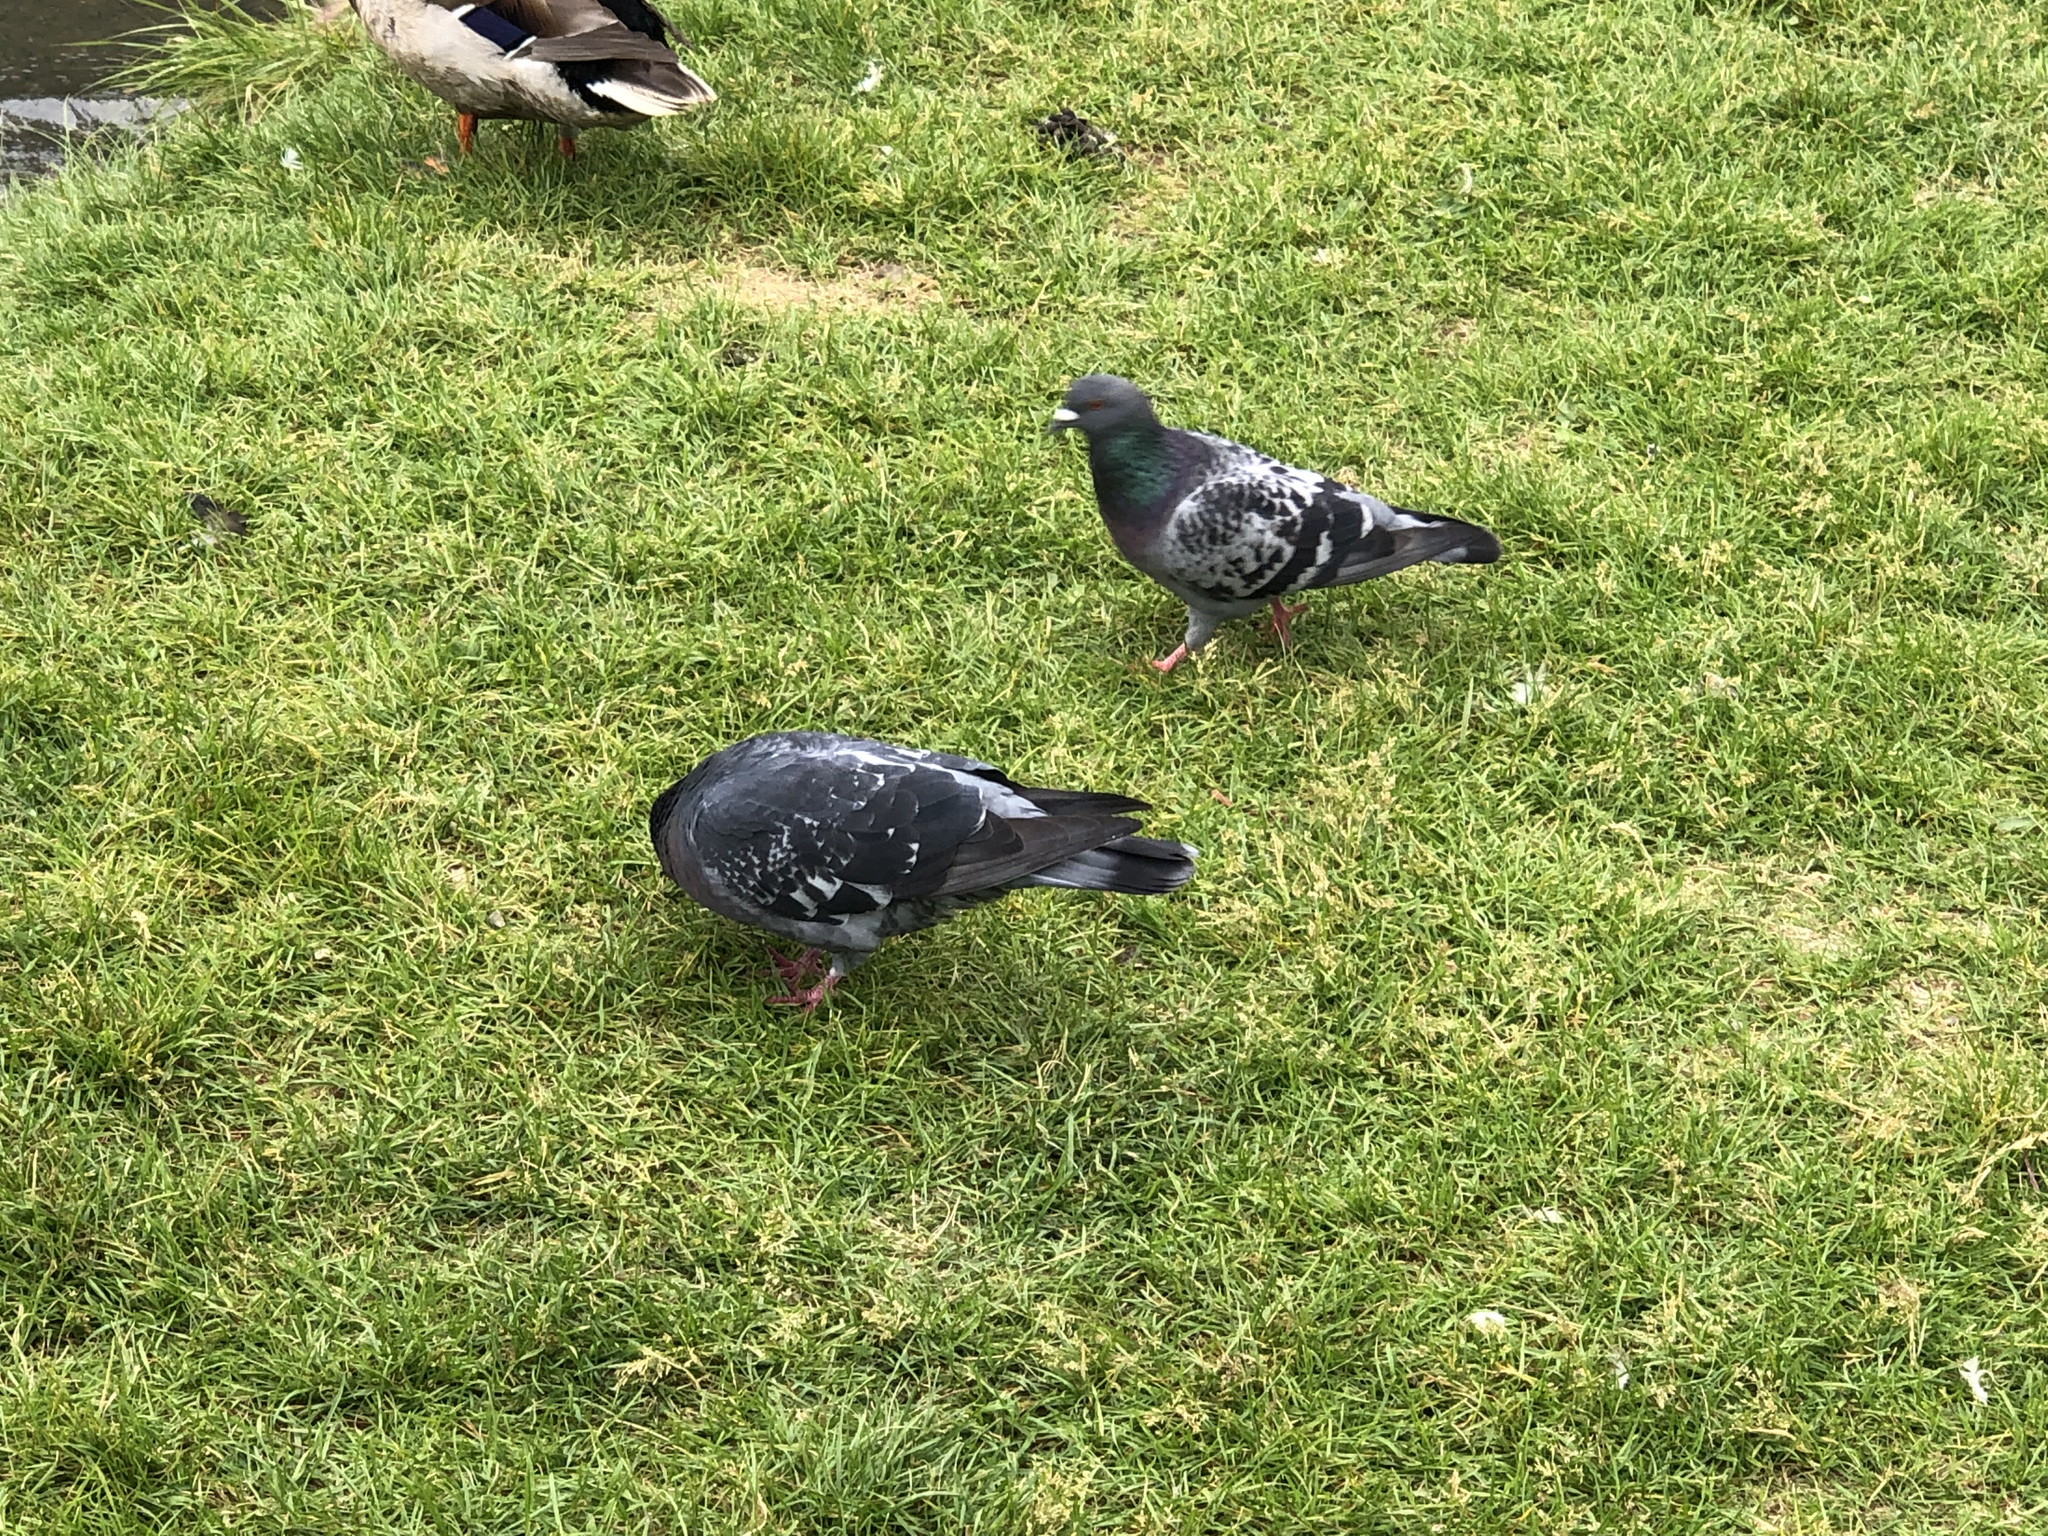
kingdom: Animalia
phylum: Chordata
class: Aves
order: Columbiformes
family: Columbidae
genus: Columba
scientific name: Columba livia
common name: Rock pigeon
